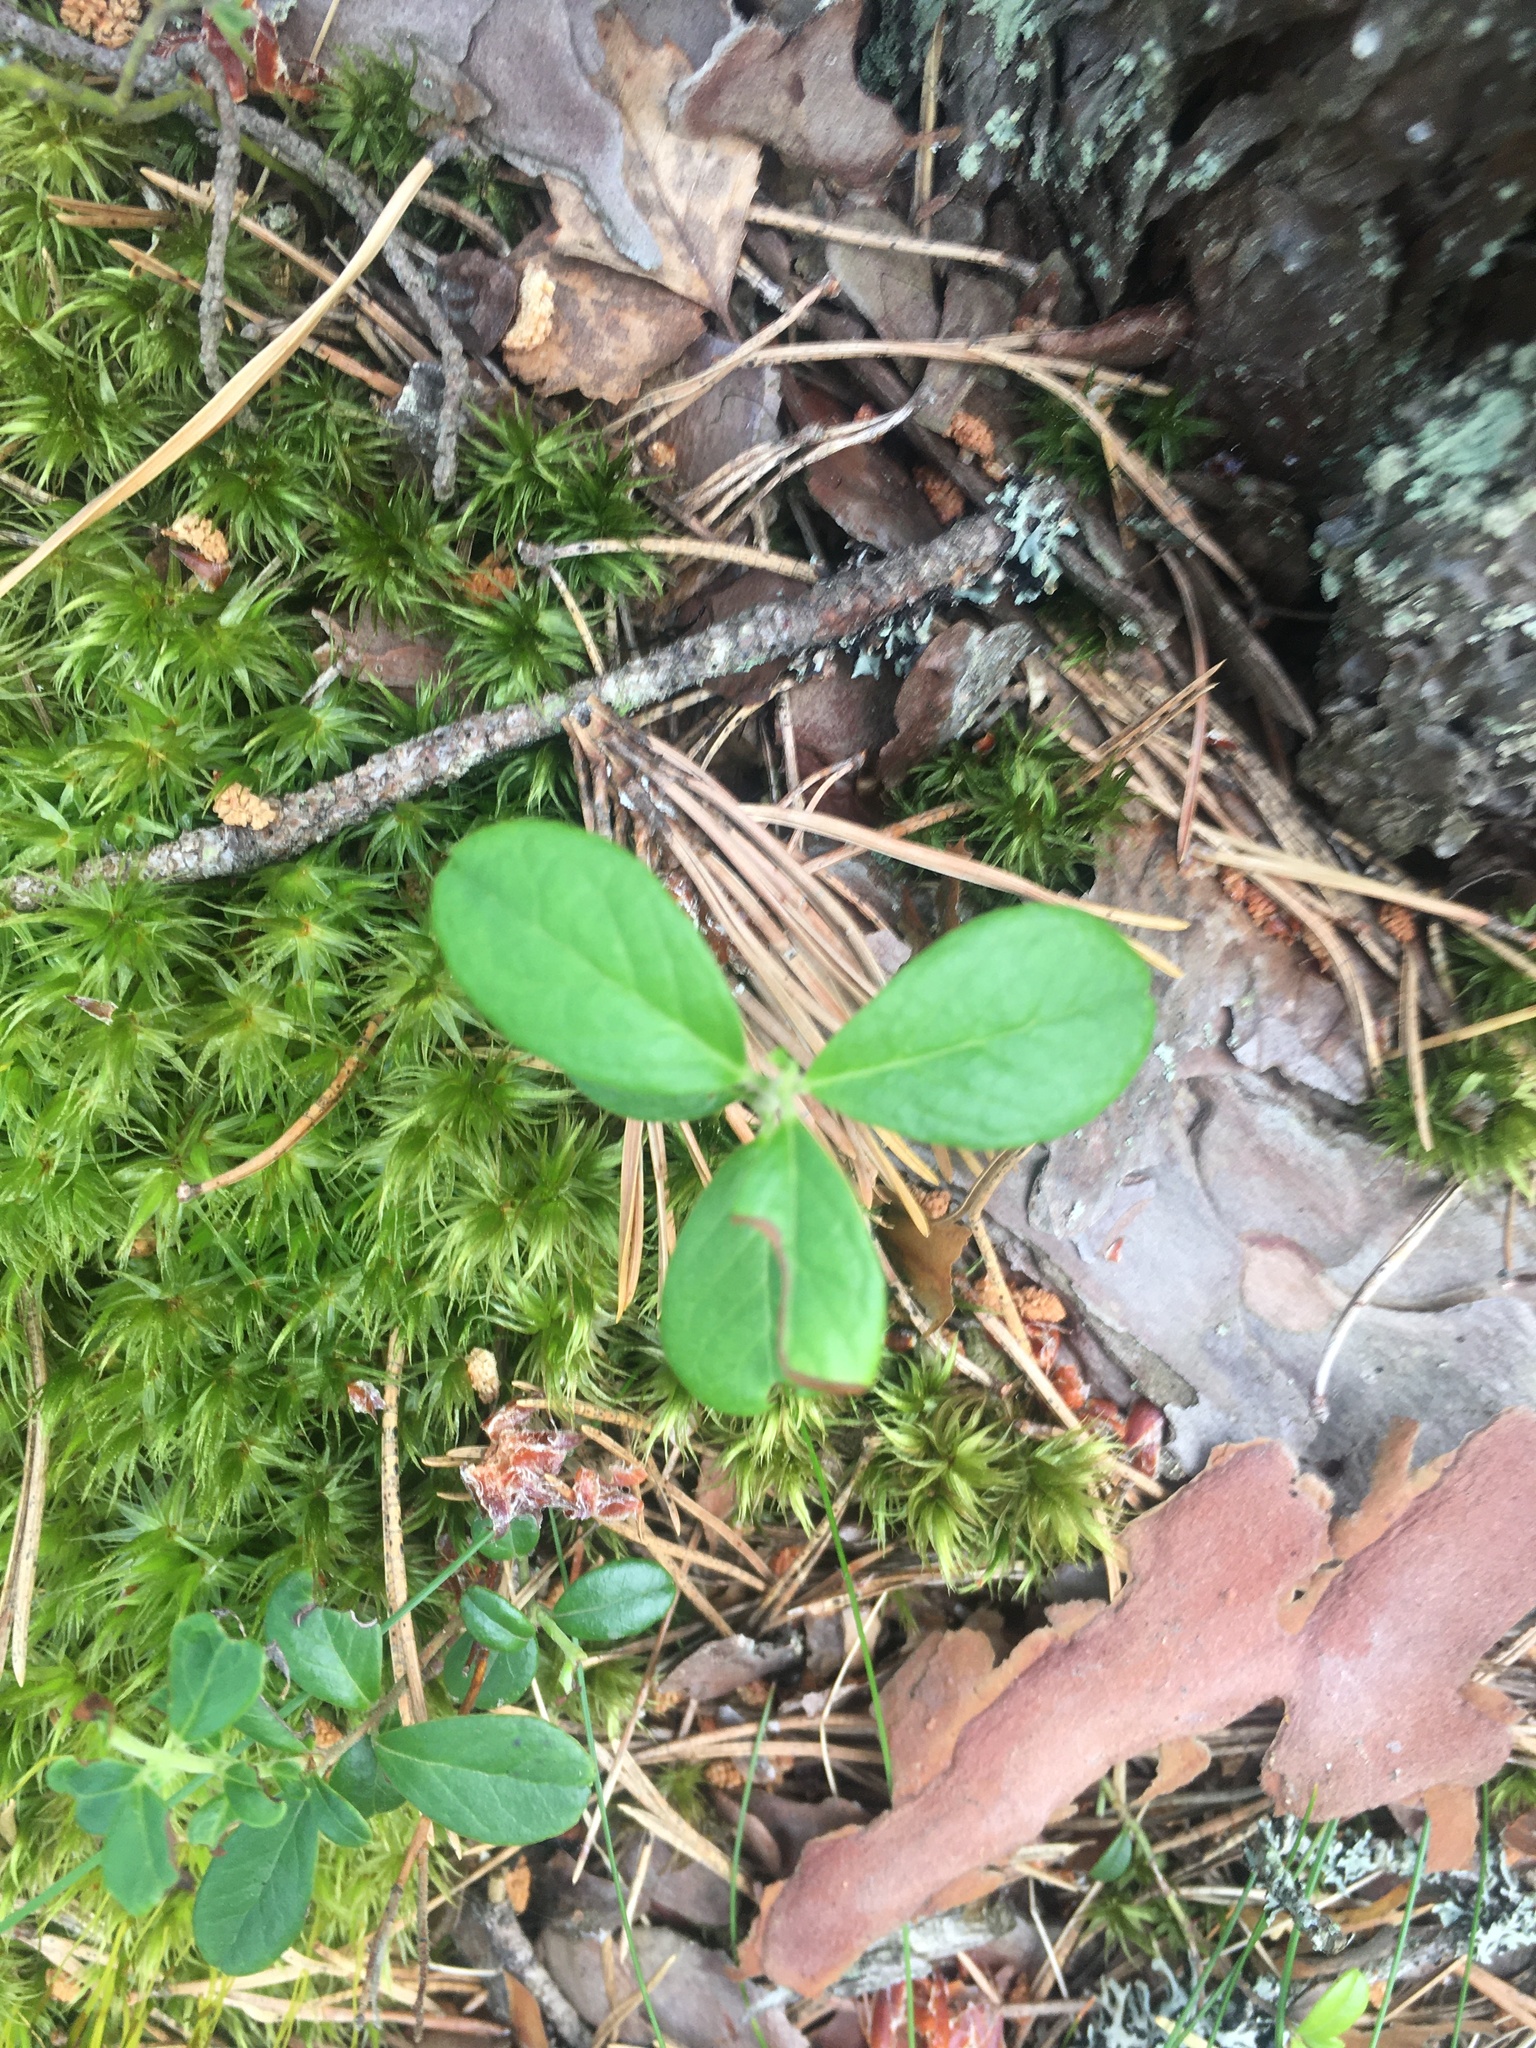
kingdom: Plantae
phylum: Tracheophyta
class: Magnoliopsida
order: Ericales
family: Ericaceae
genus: Vaccinium
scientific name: Vaccinium vitis-idaea
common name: Cowberry
